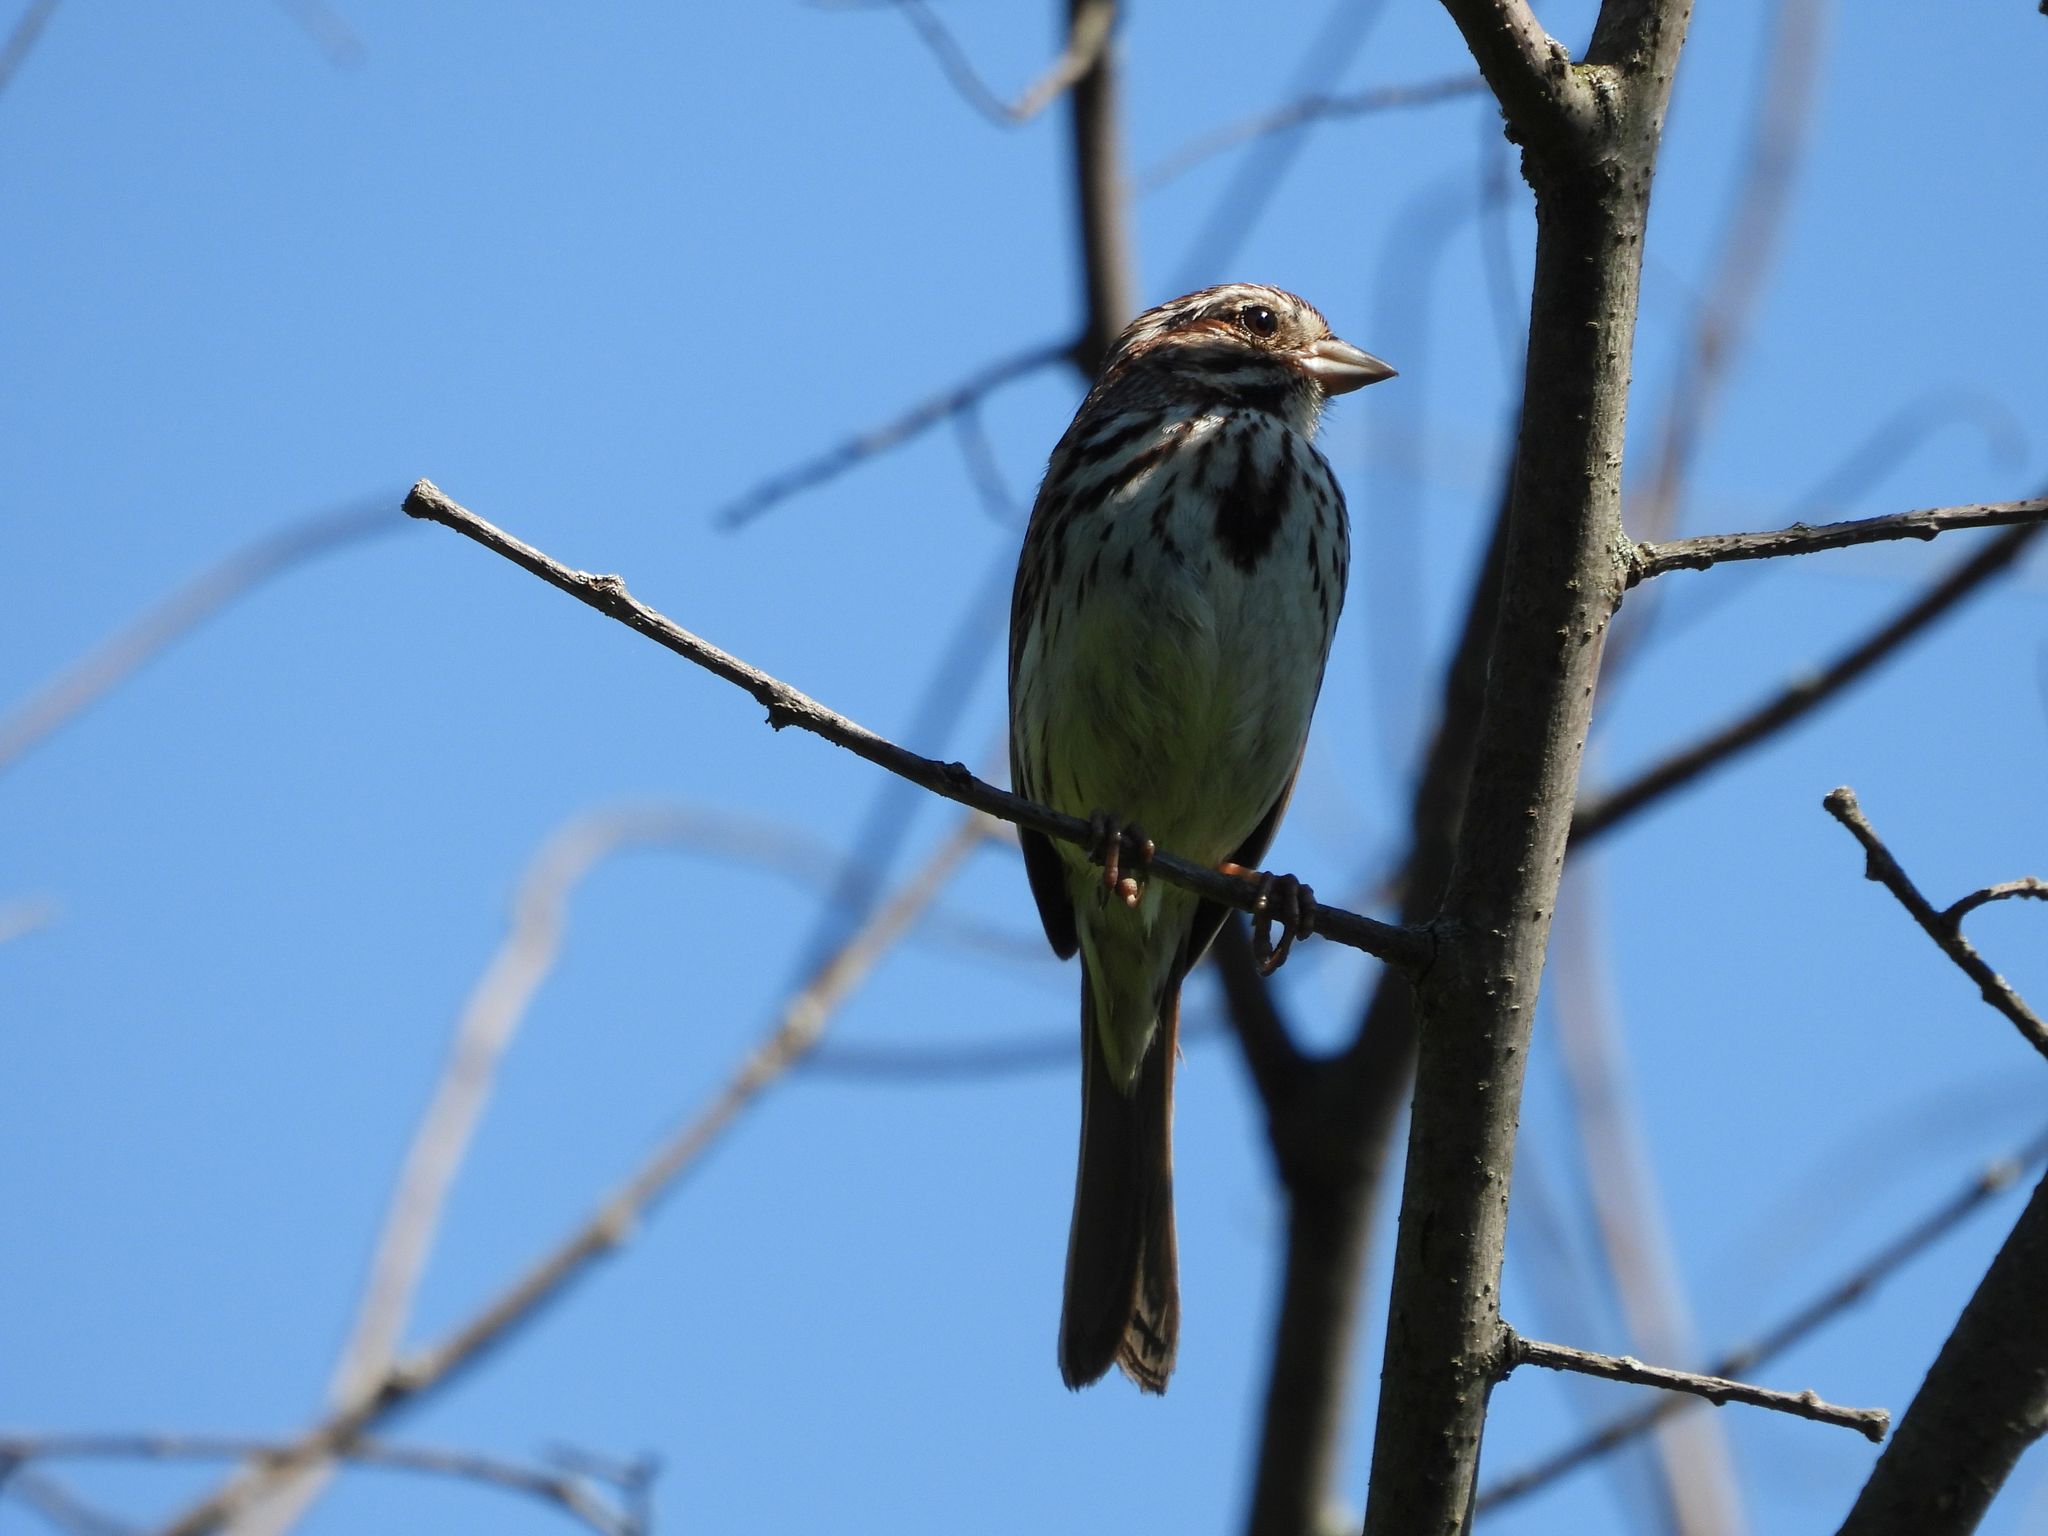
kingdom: Animalia
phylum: Chordata
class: Aves
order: Passeriformes
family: Passerellidae
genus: Melospiza
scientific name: Melospiza melodia
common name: Song sparrow
